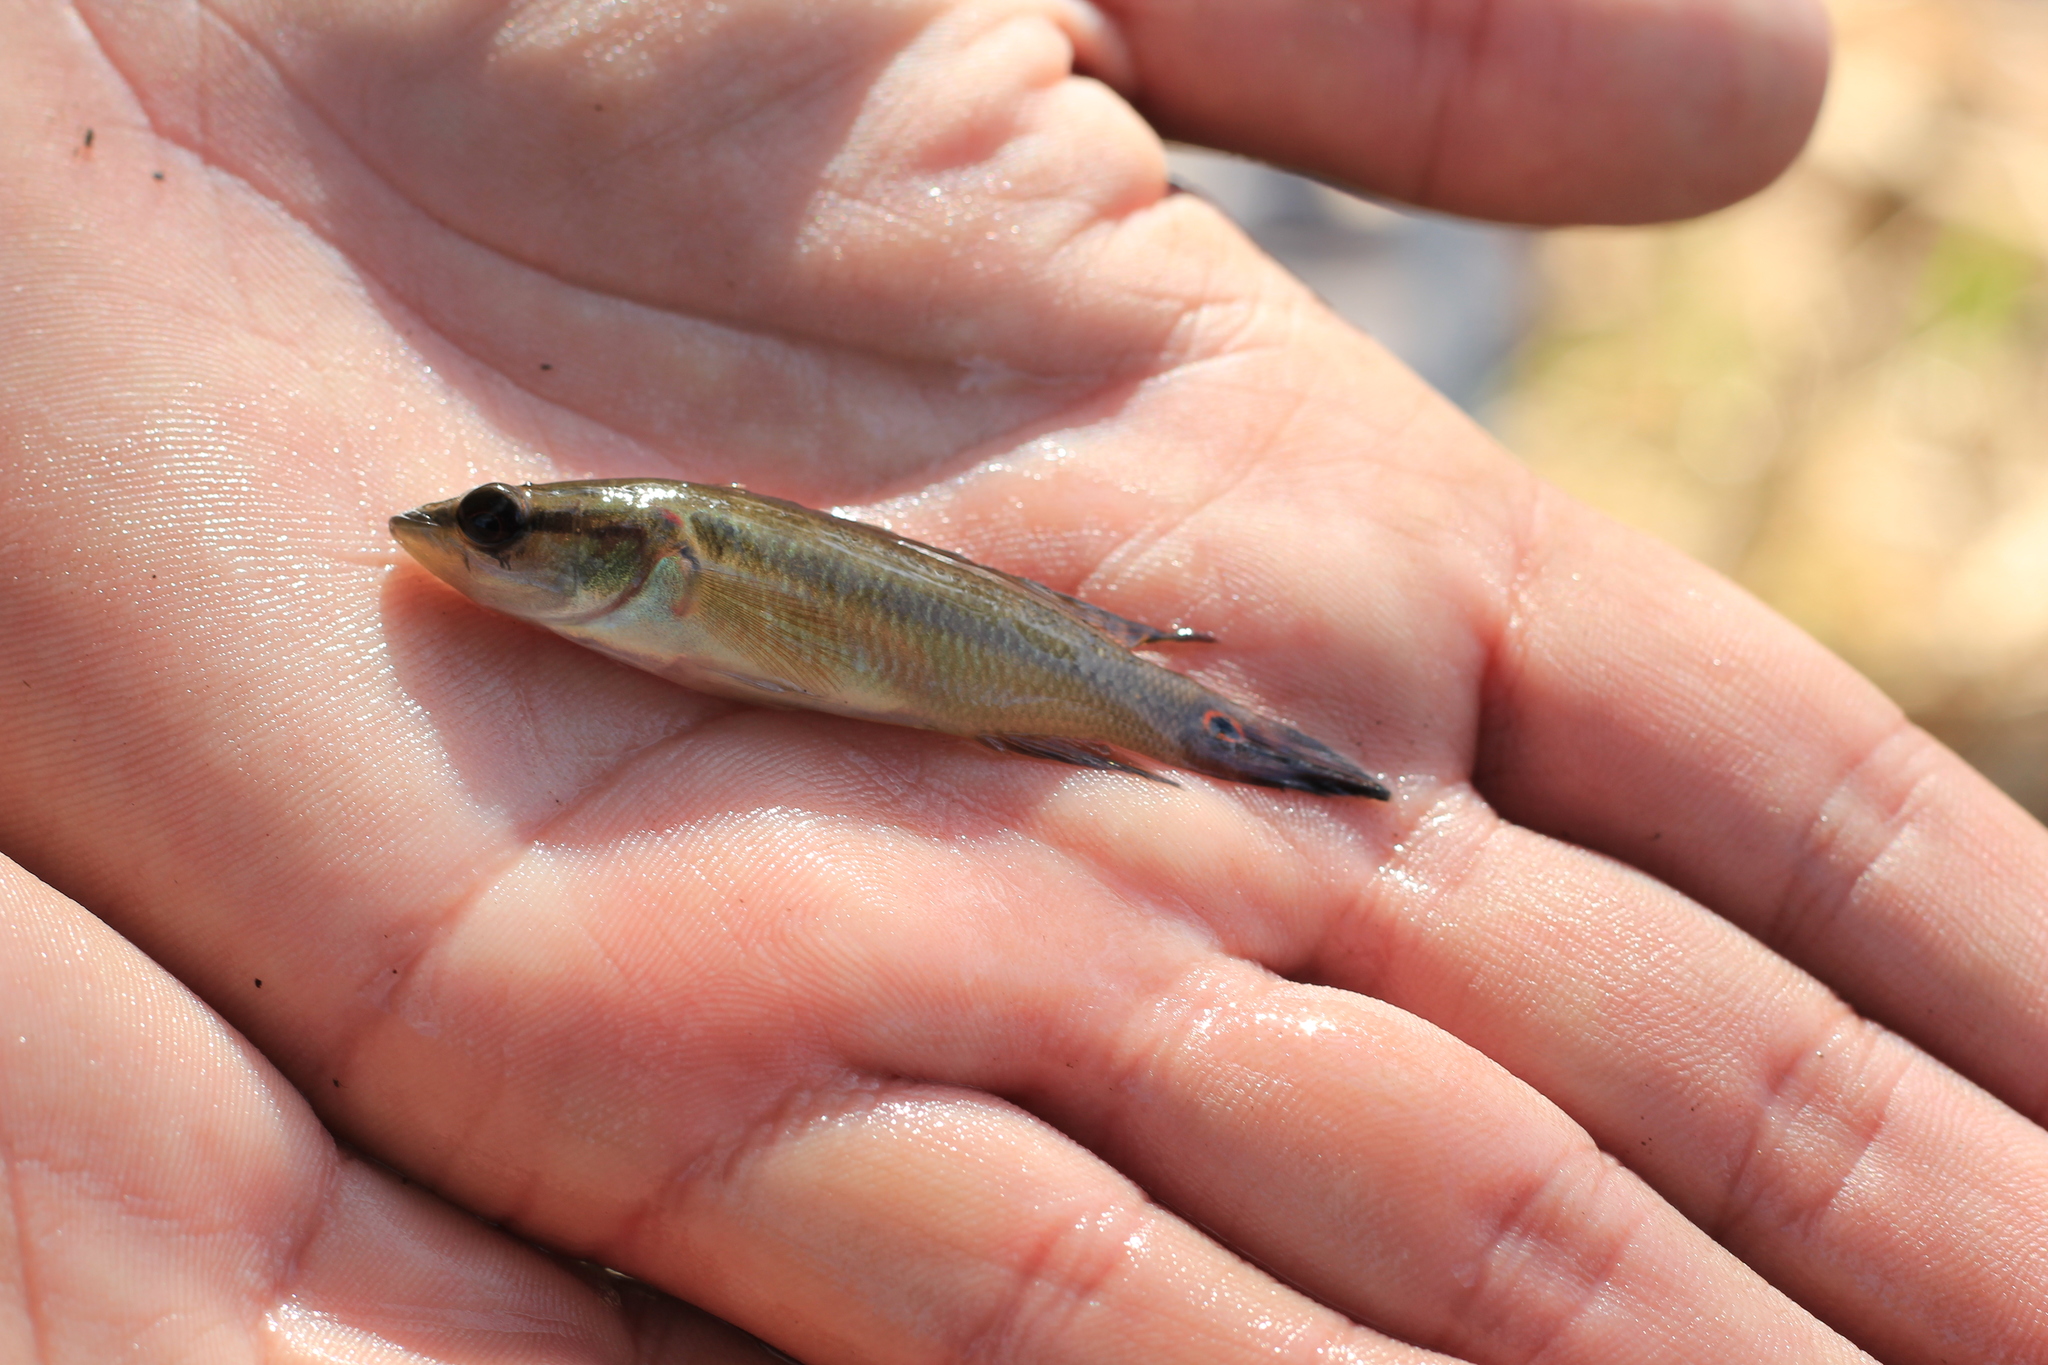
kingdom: Animalia
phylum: Chordata
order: Perciformes
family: Cichlidae
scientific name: Cichlidae
